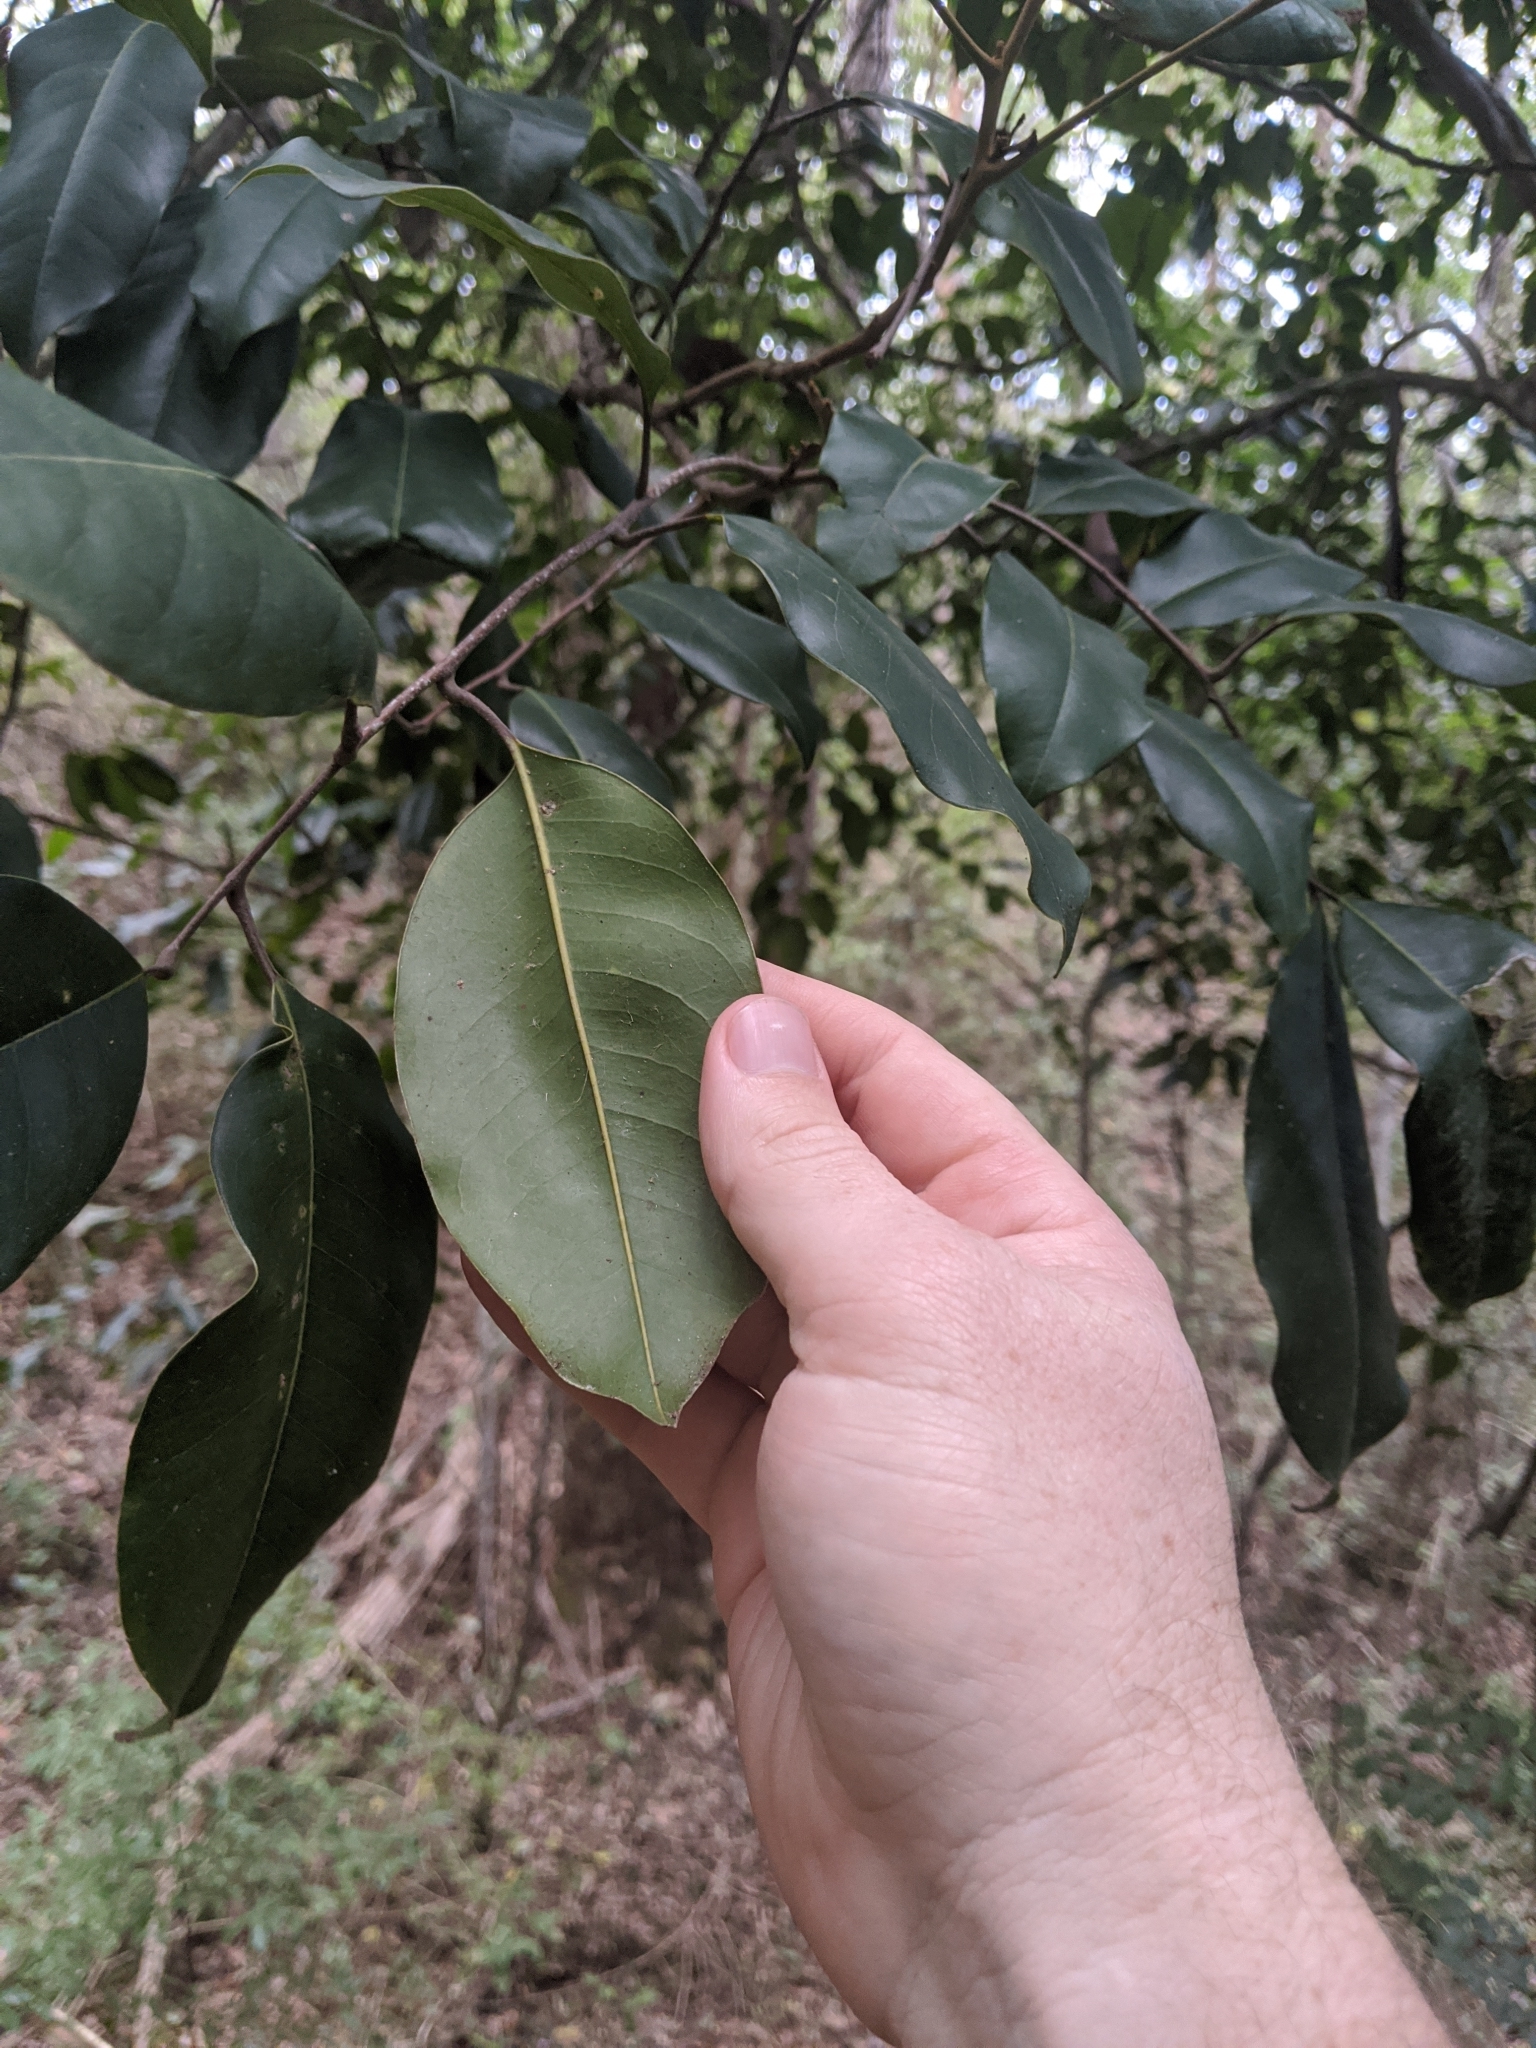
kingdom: Plantae
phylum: Tracheophyta
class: Magnoliopsida
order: Sapindales
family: Sapindaceae
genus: Mischocarpus
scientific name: Mischocarpus pyriformis
